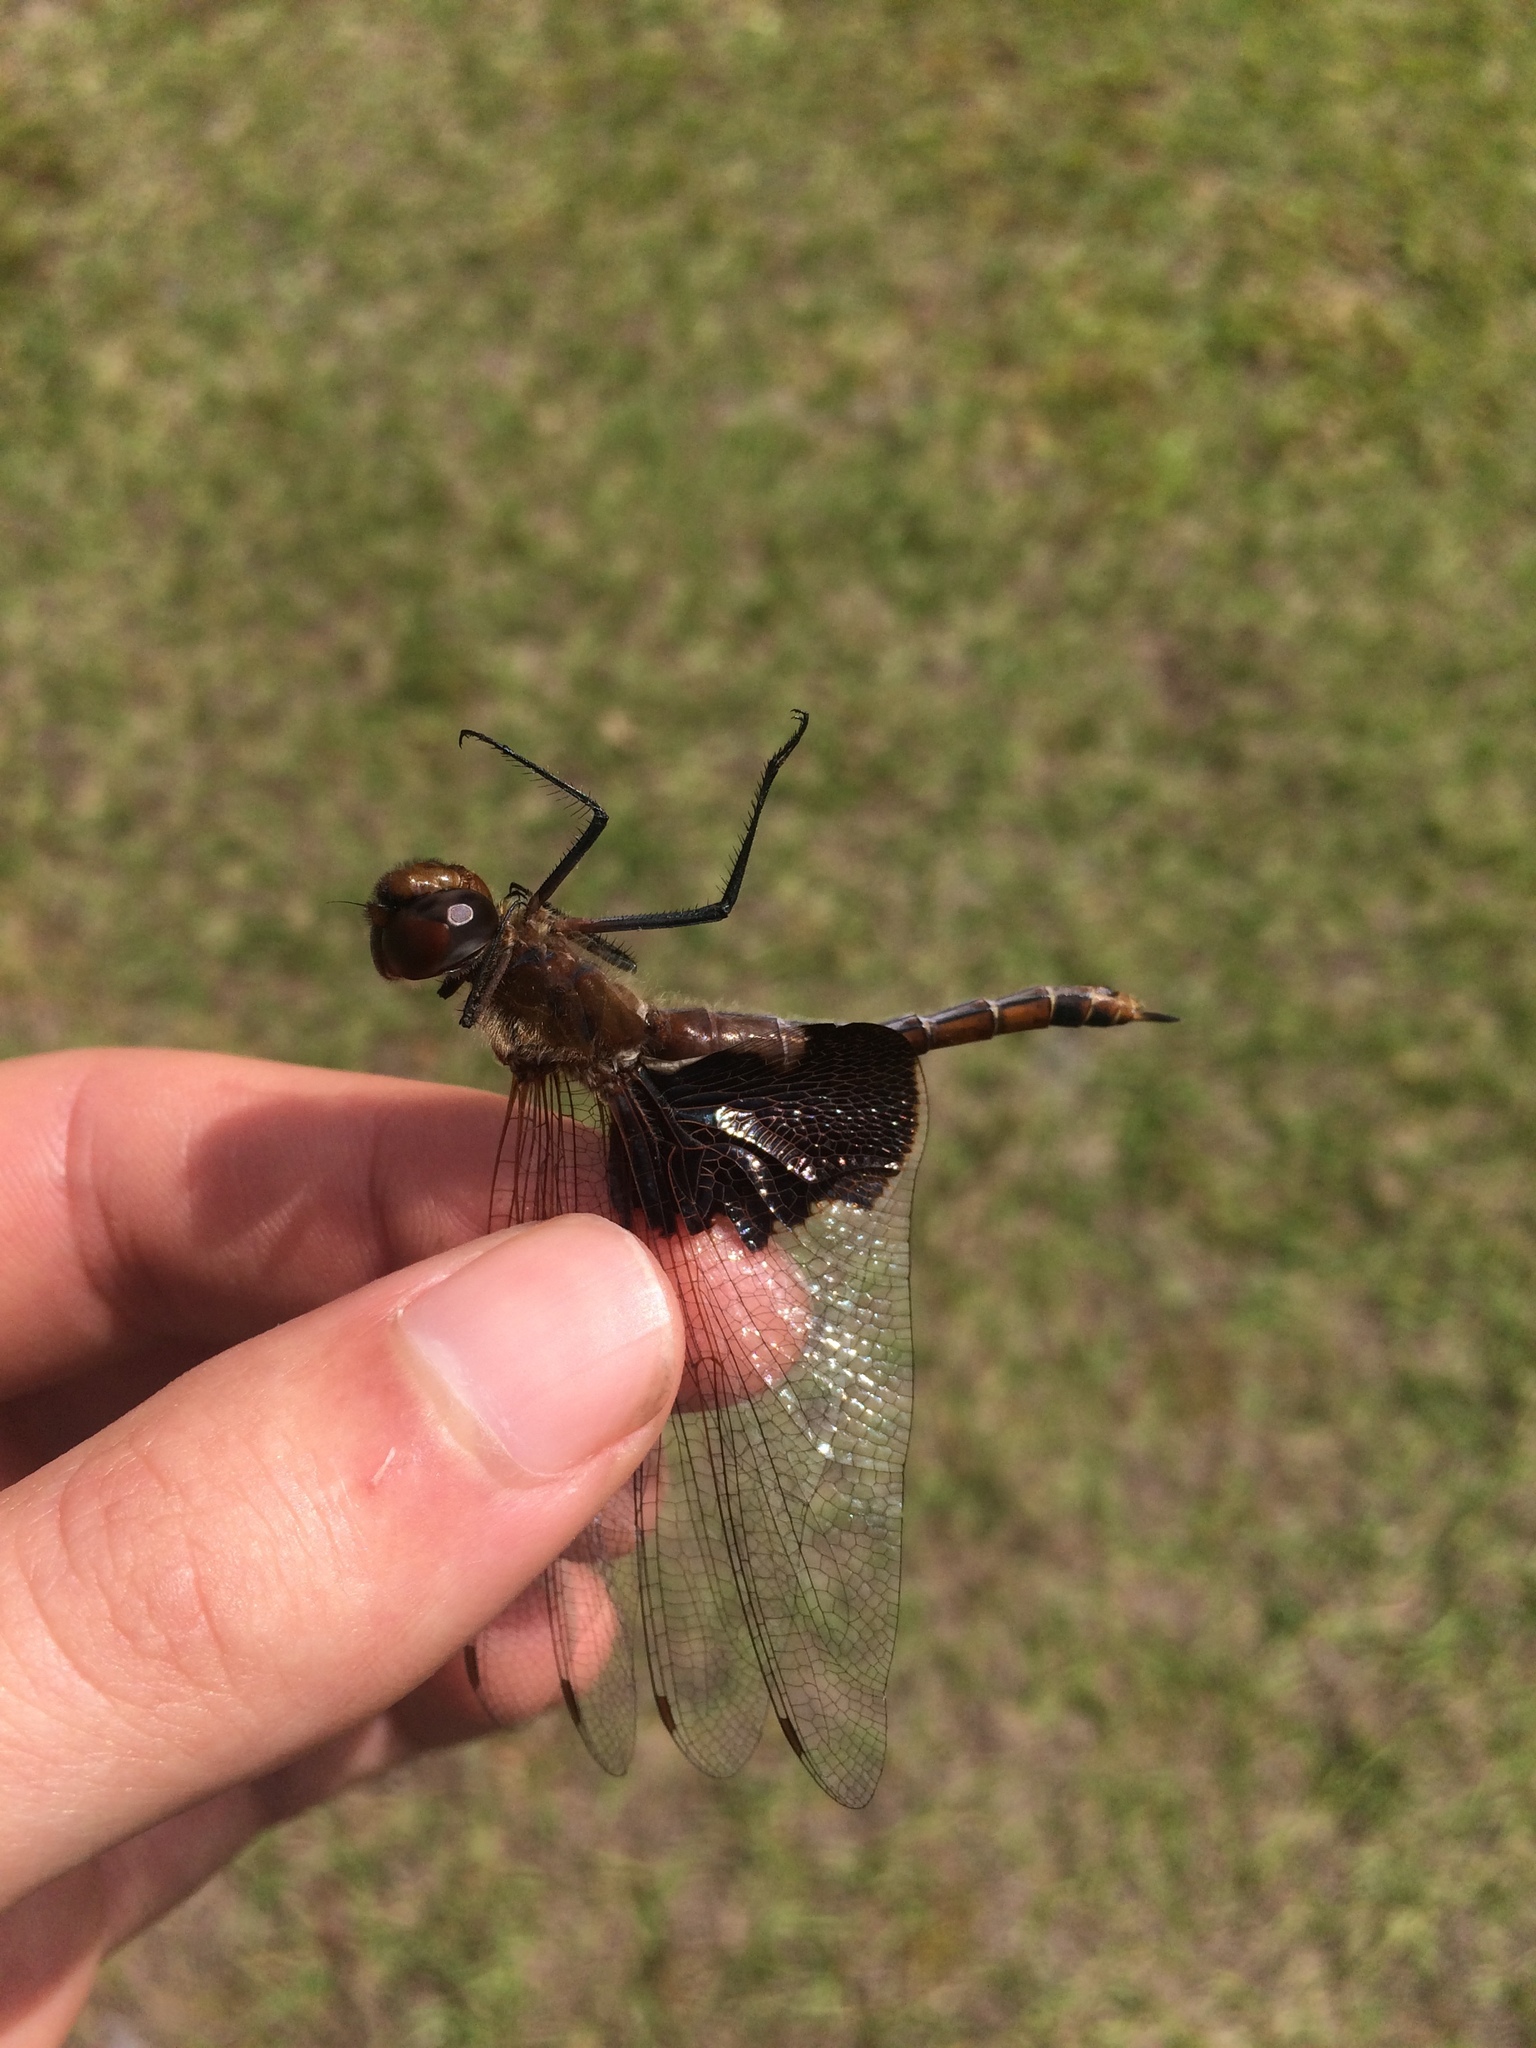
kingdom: Animalia
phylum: Arthropoda
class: Insecta
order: Odonata
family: Libellulidae
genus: Tramea
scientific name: Tramea carolina
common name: Carolina saddlebags
